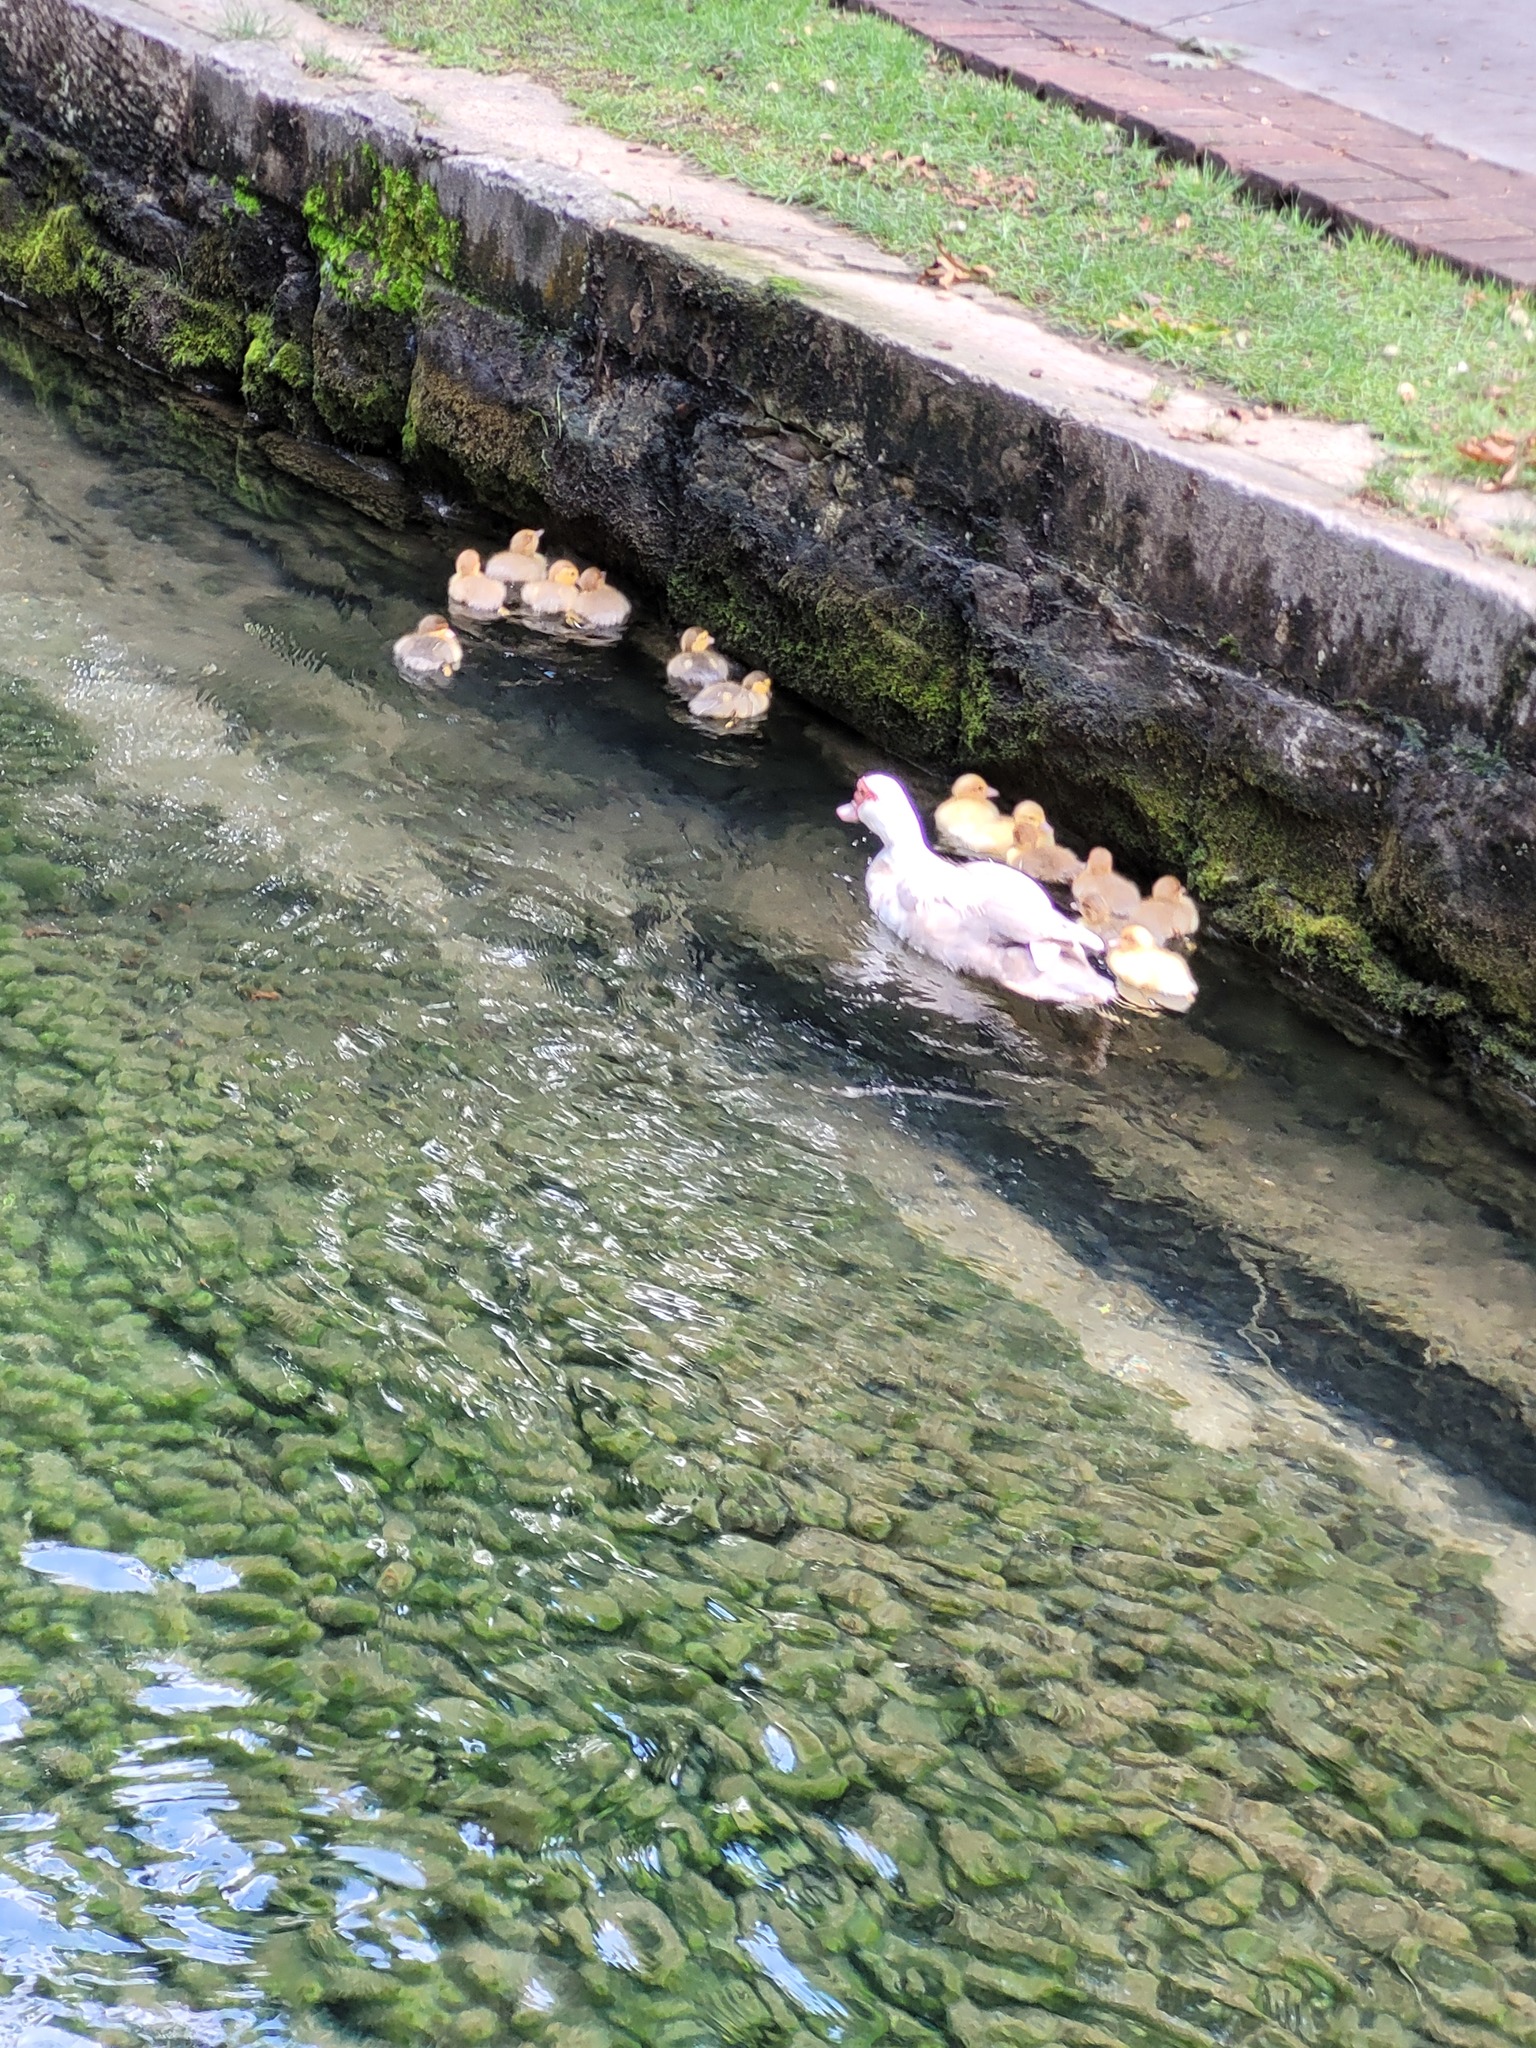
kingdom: Animalia
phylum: Chordata
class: Aves
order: Anseriformes
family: Anatidae
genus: Cairina
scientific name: Cairina moschata
